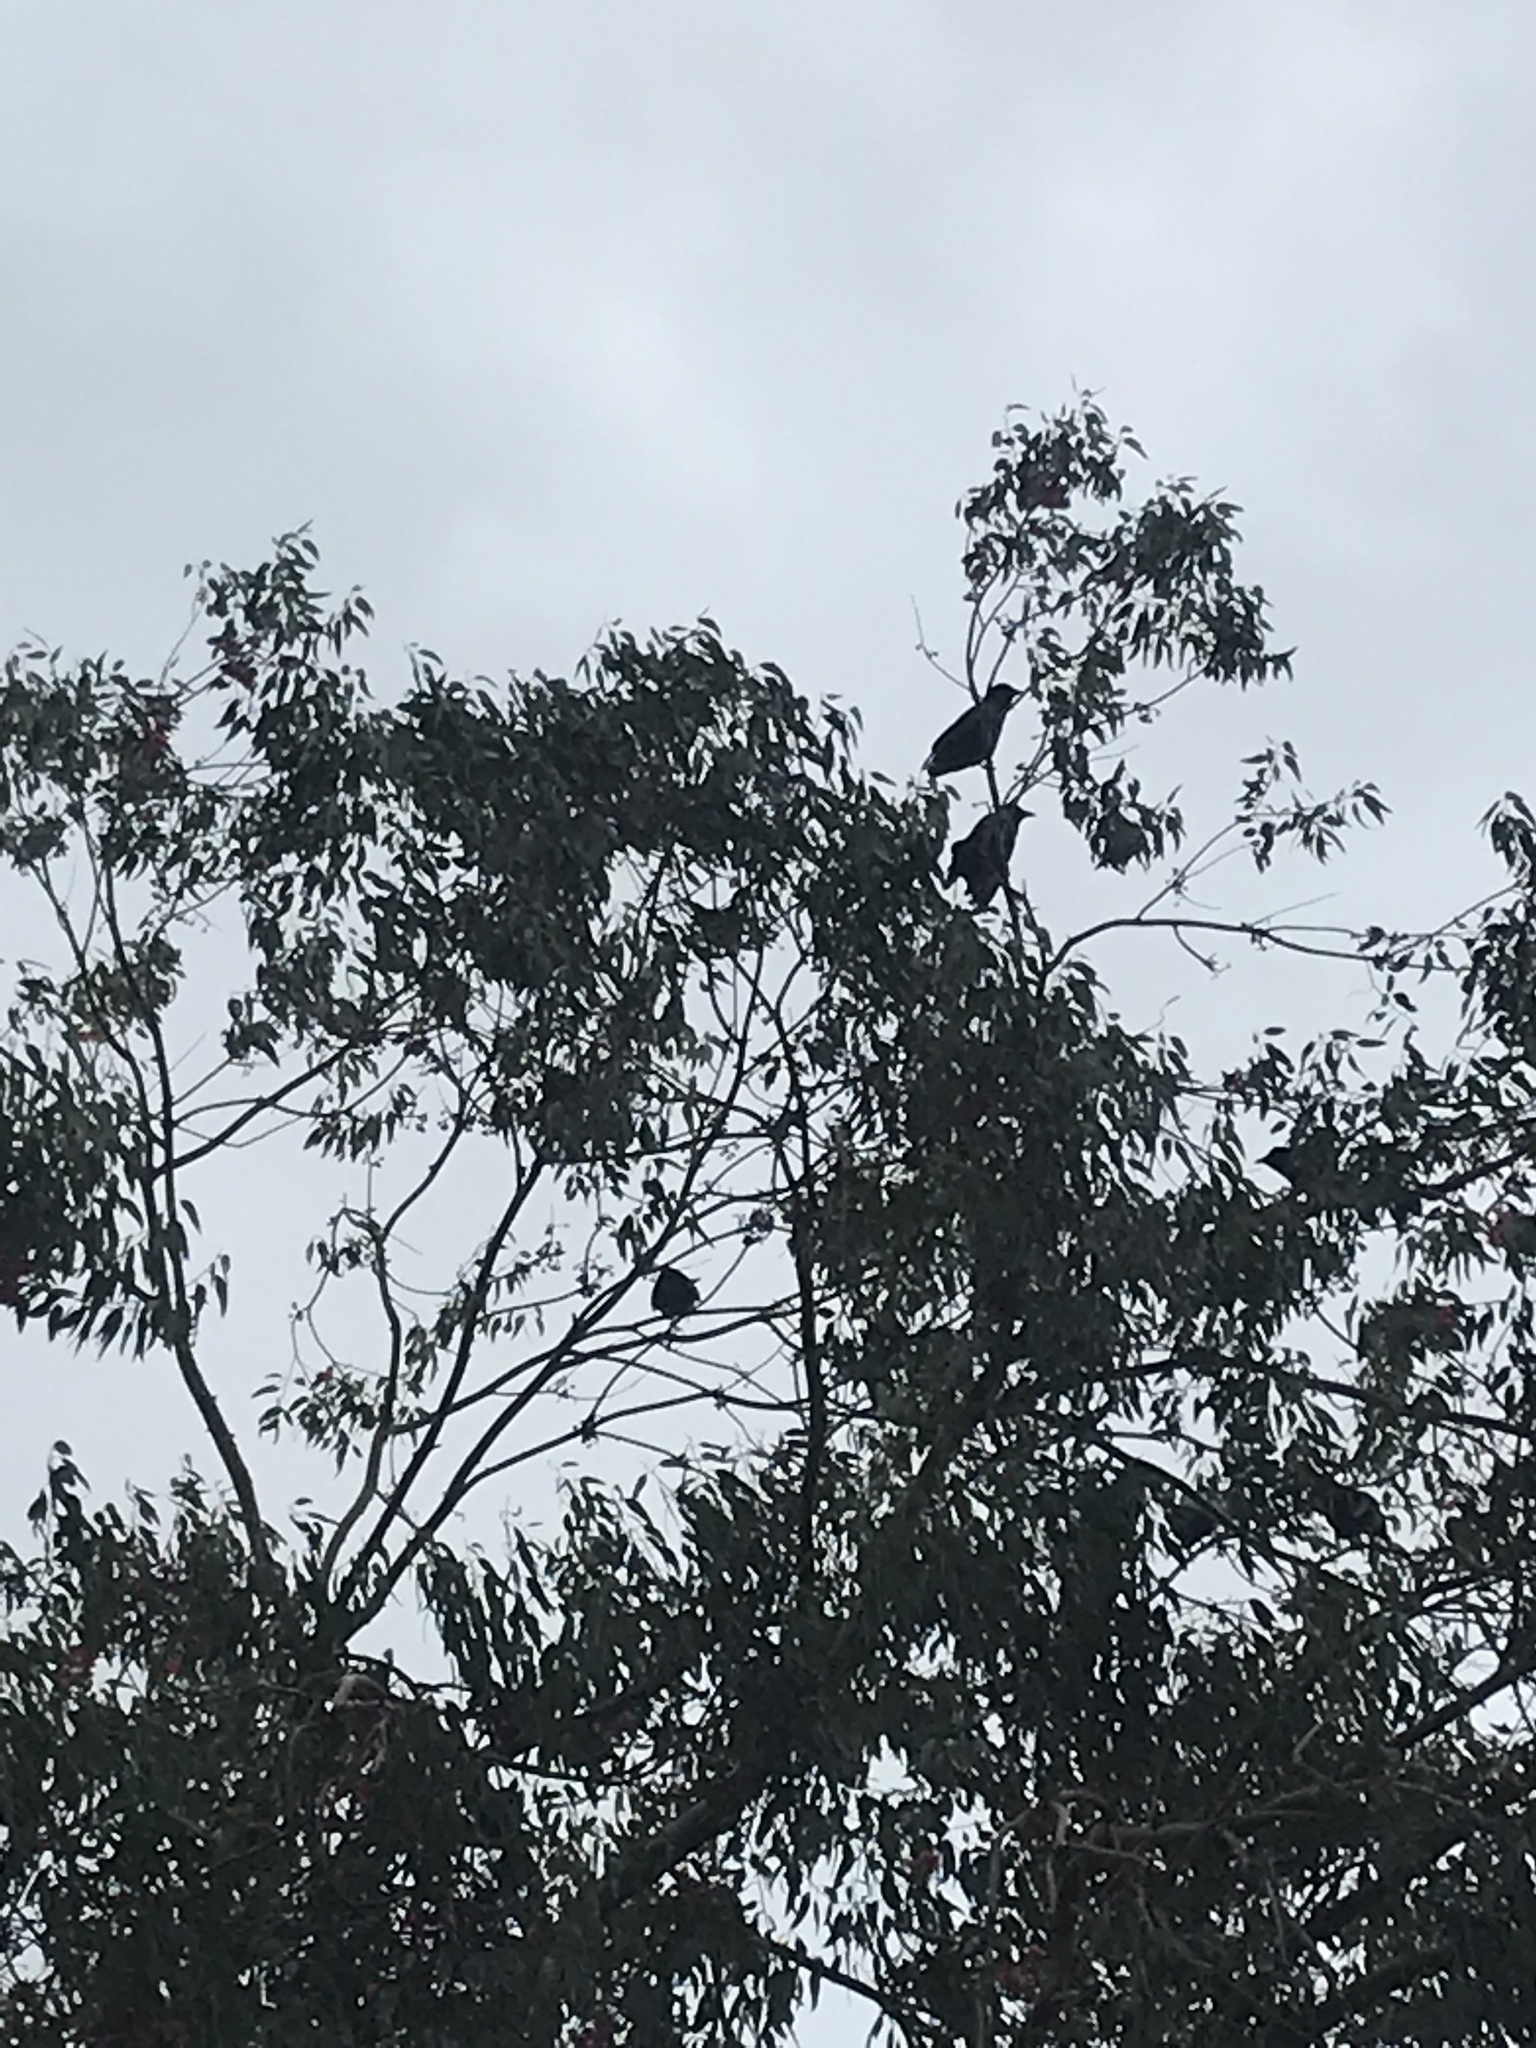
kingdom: Animalia
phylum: Chordata
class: Aves
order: Passeriformes
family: Corvidae
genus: Corvus
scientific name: Corvus brachyrhynchos
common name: American crow
